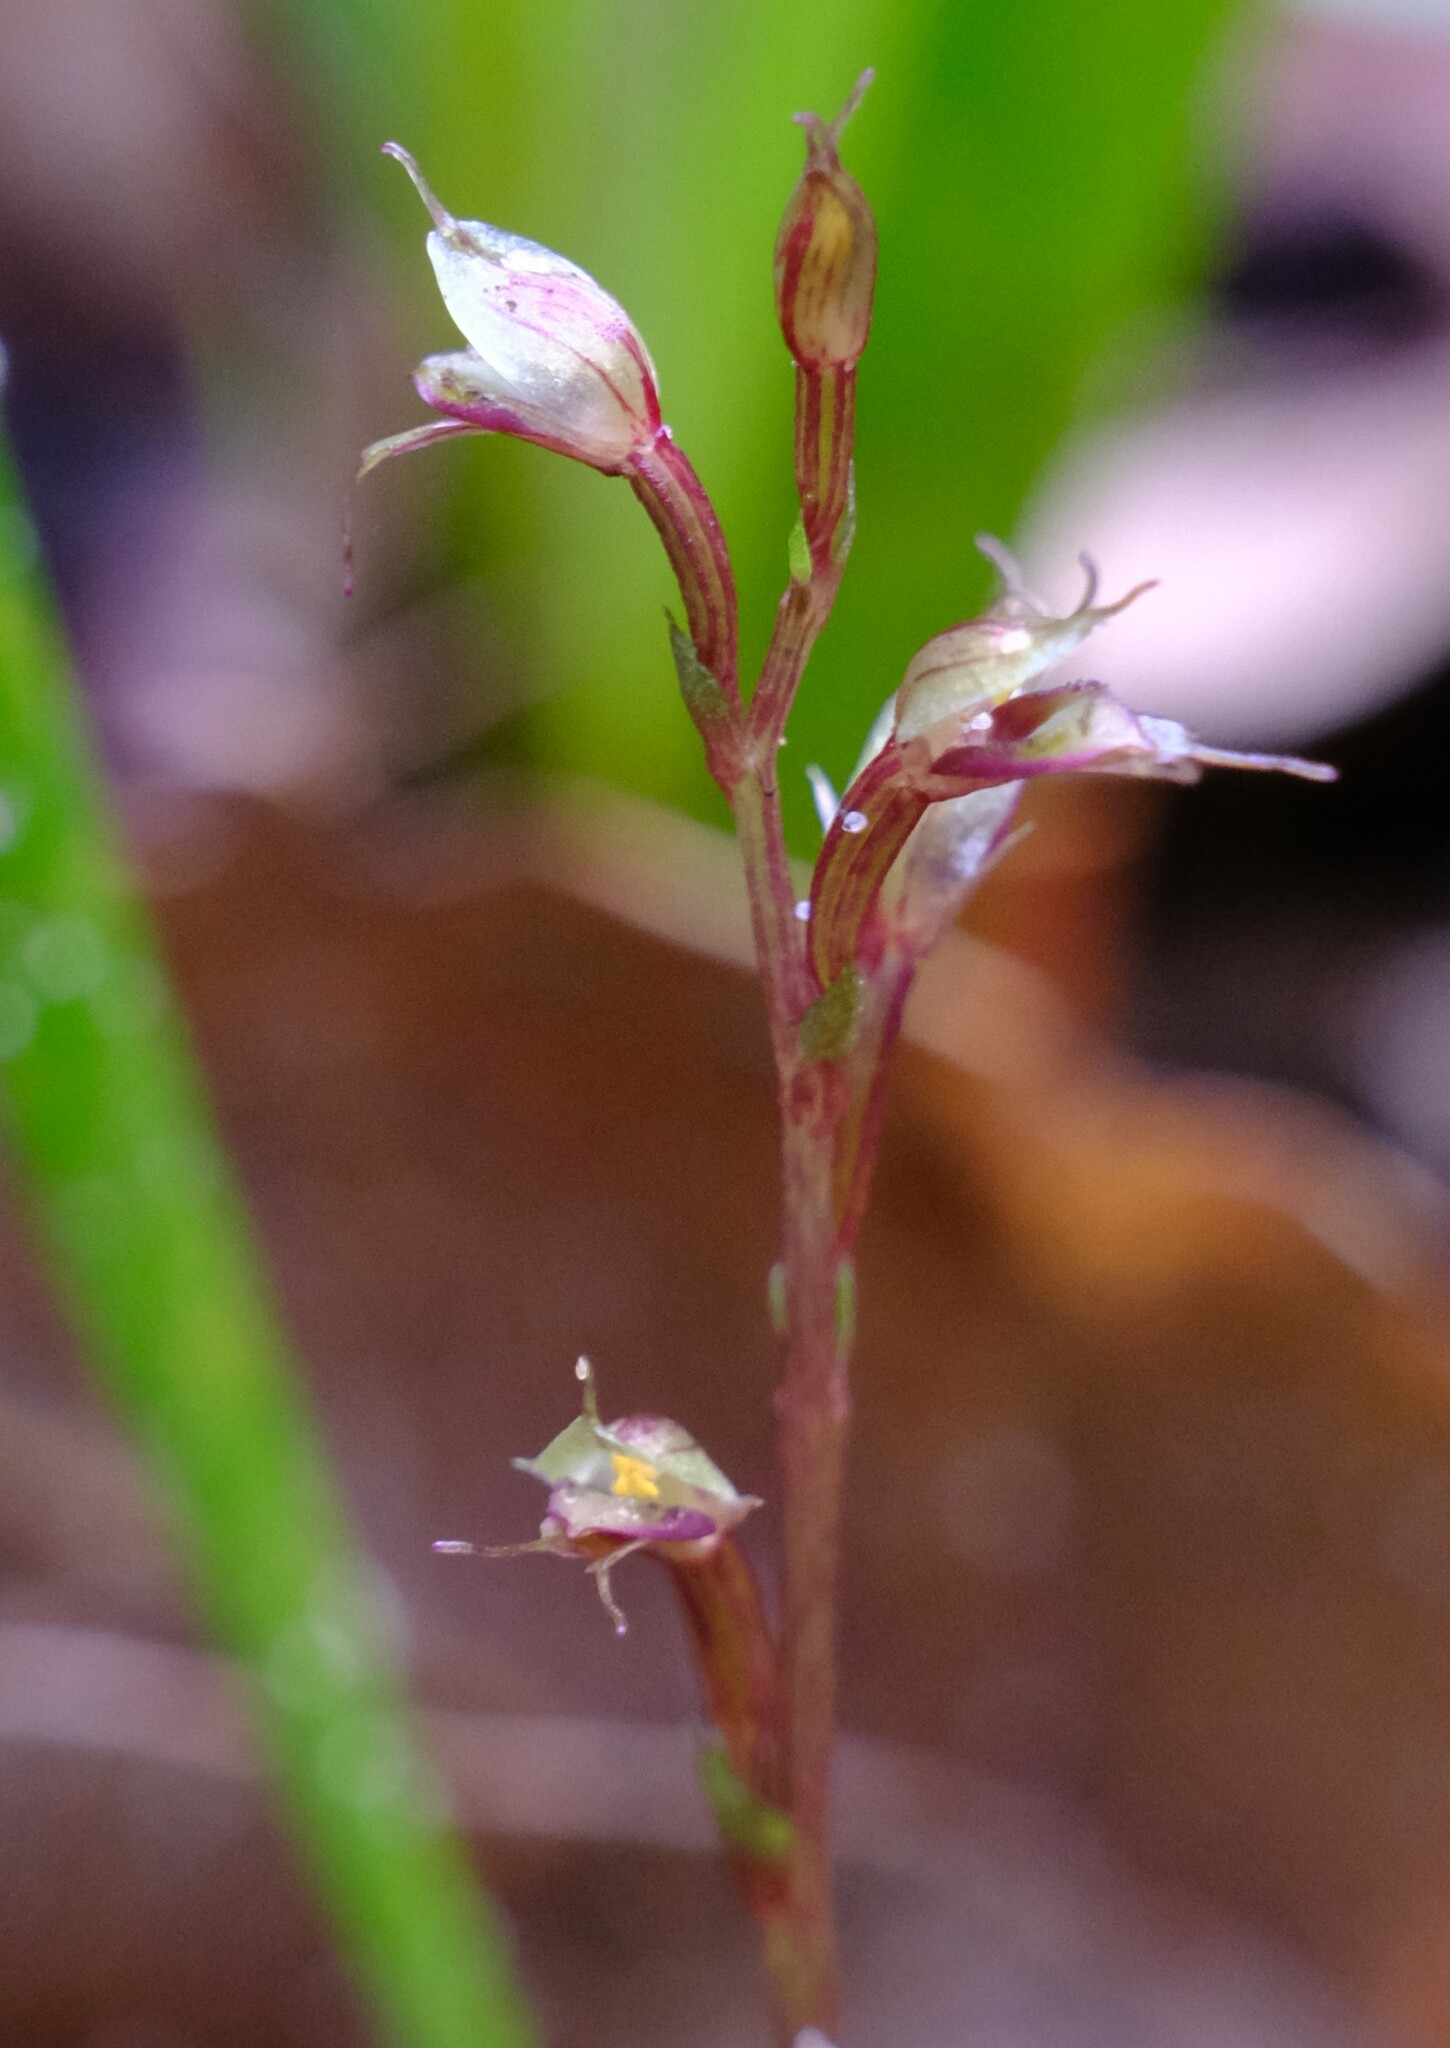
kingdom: Plantae
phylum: Tracheophyta
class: Liliopsida
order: Asparagales
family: Orchidaceae
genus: Acianthus
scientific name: Acianthus fornicatus
